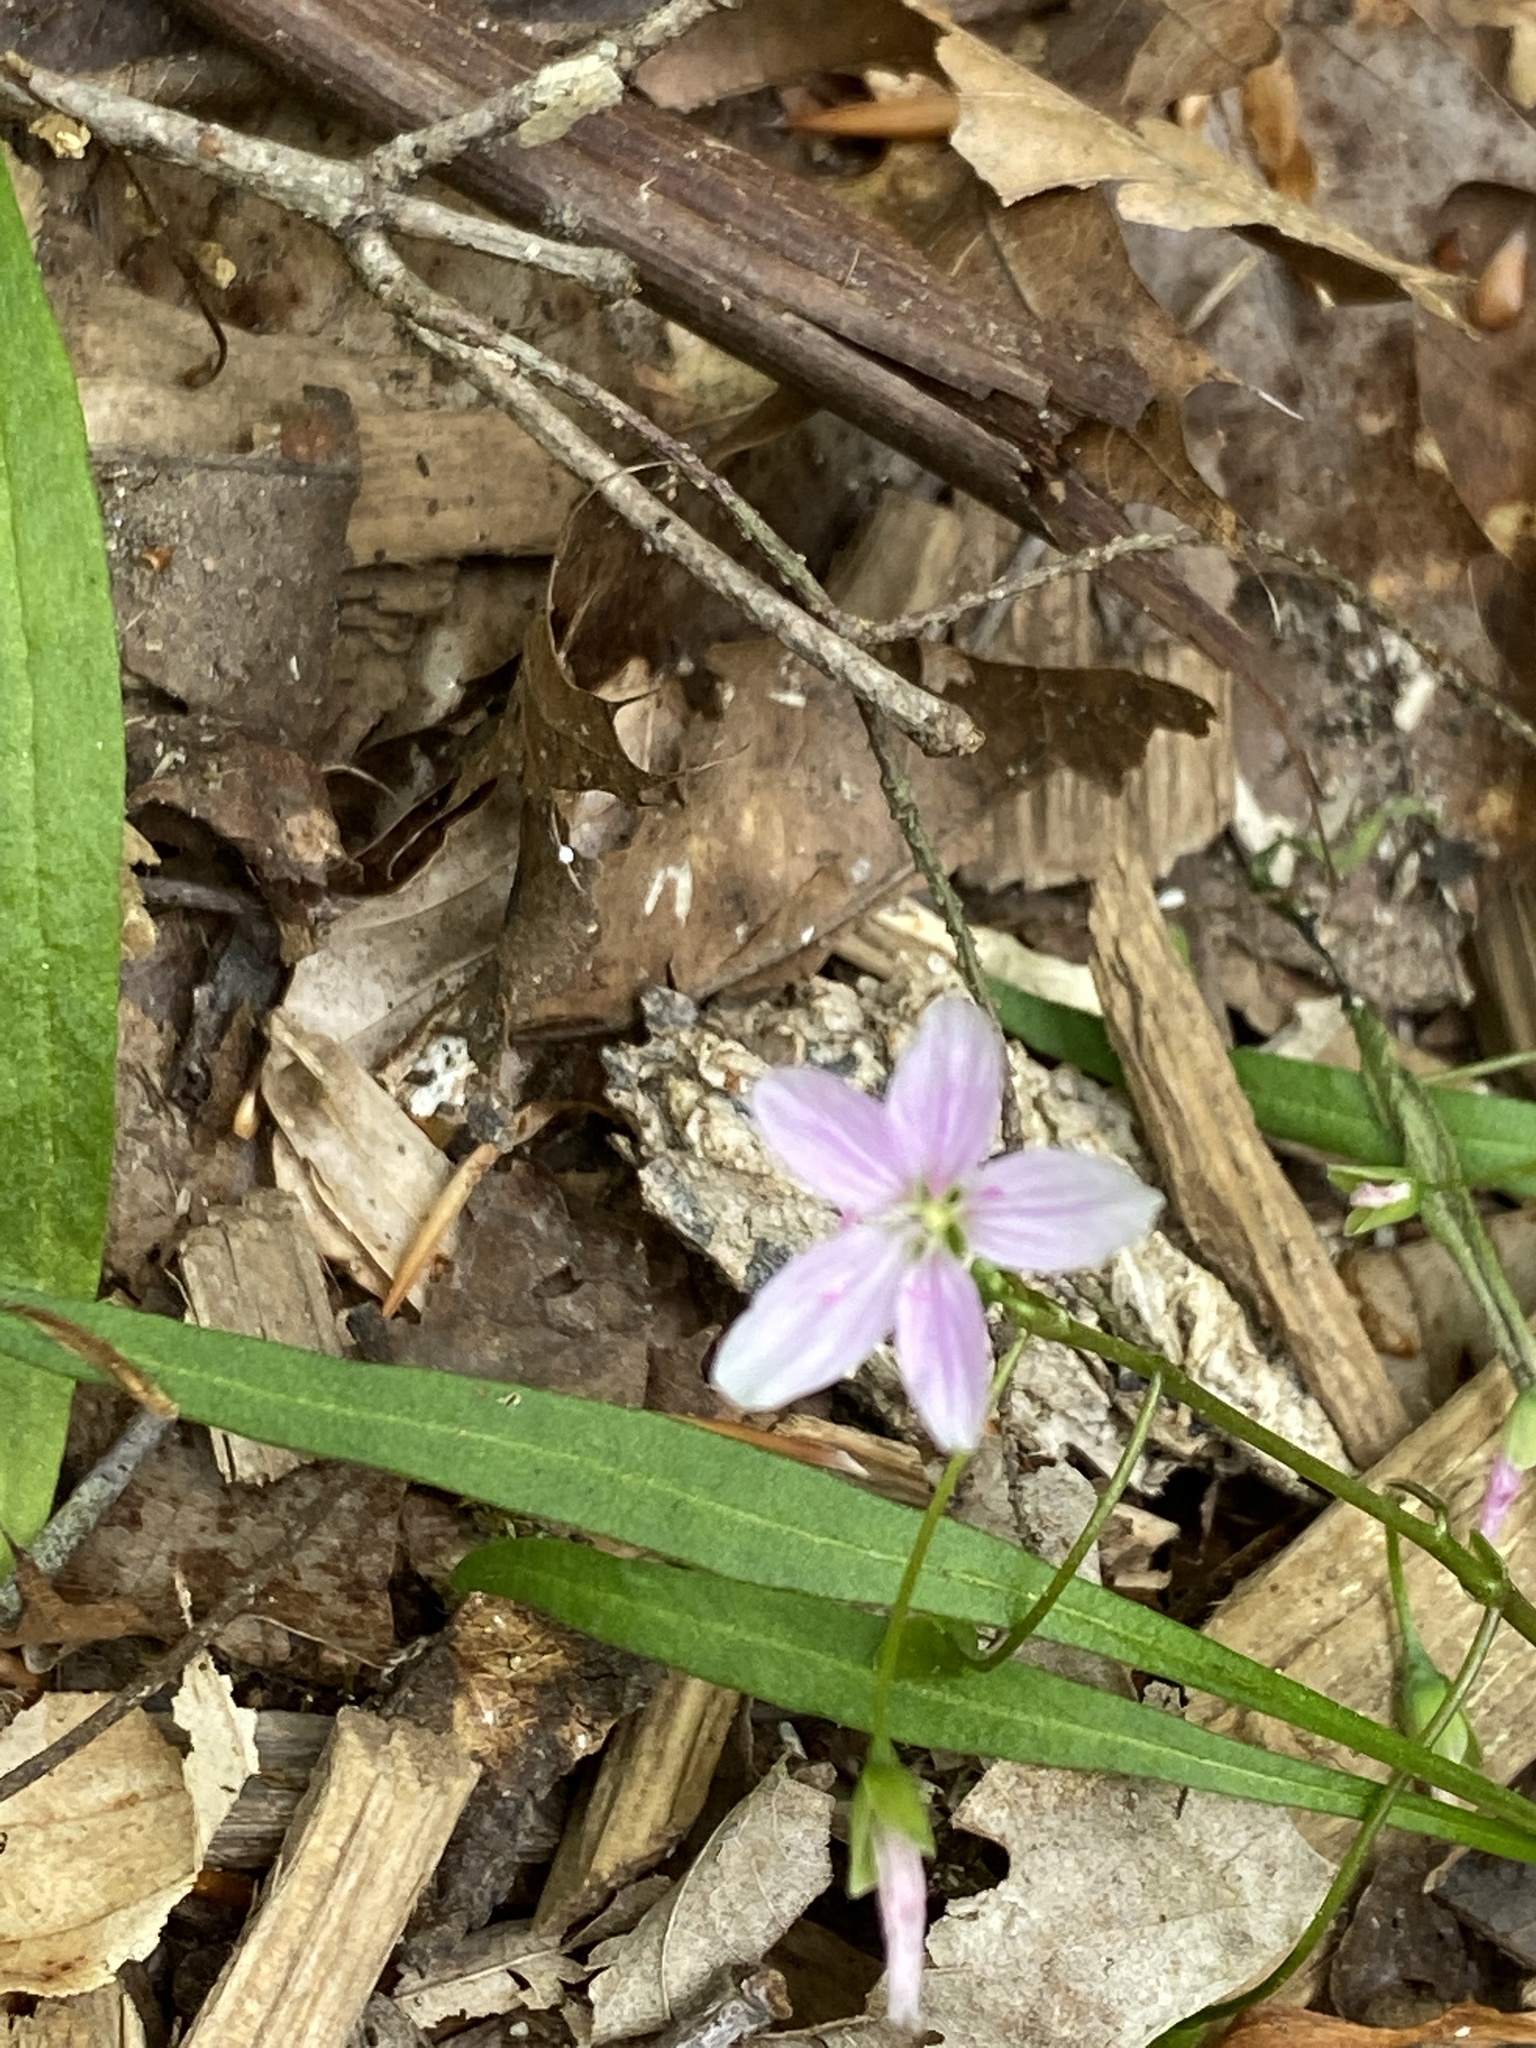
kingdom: Plantae
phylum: Tracheophyta
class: Magnoliopsida
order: Caryophyllales
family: Montiaceae
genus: Claytonia
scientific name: Claytonia virginica
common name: Virginia springbeauty
